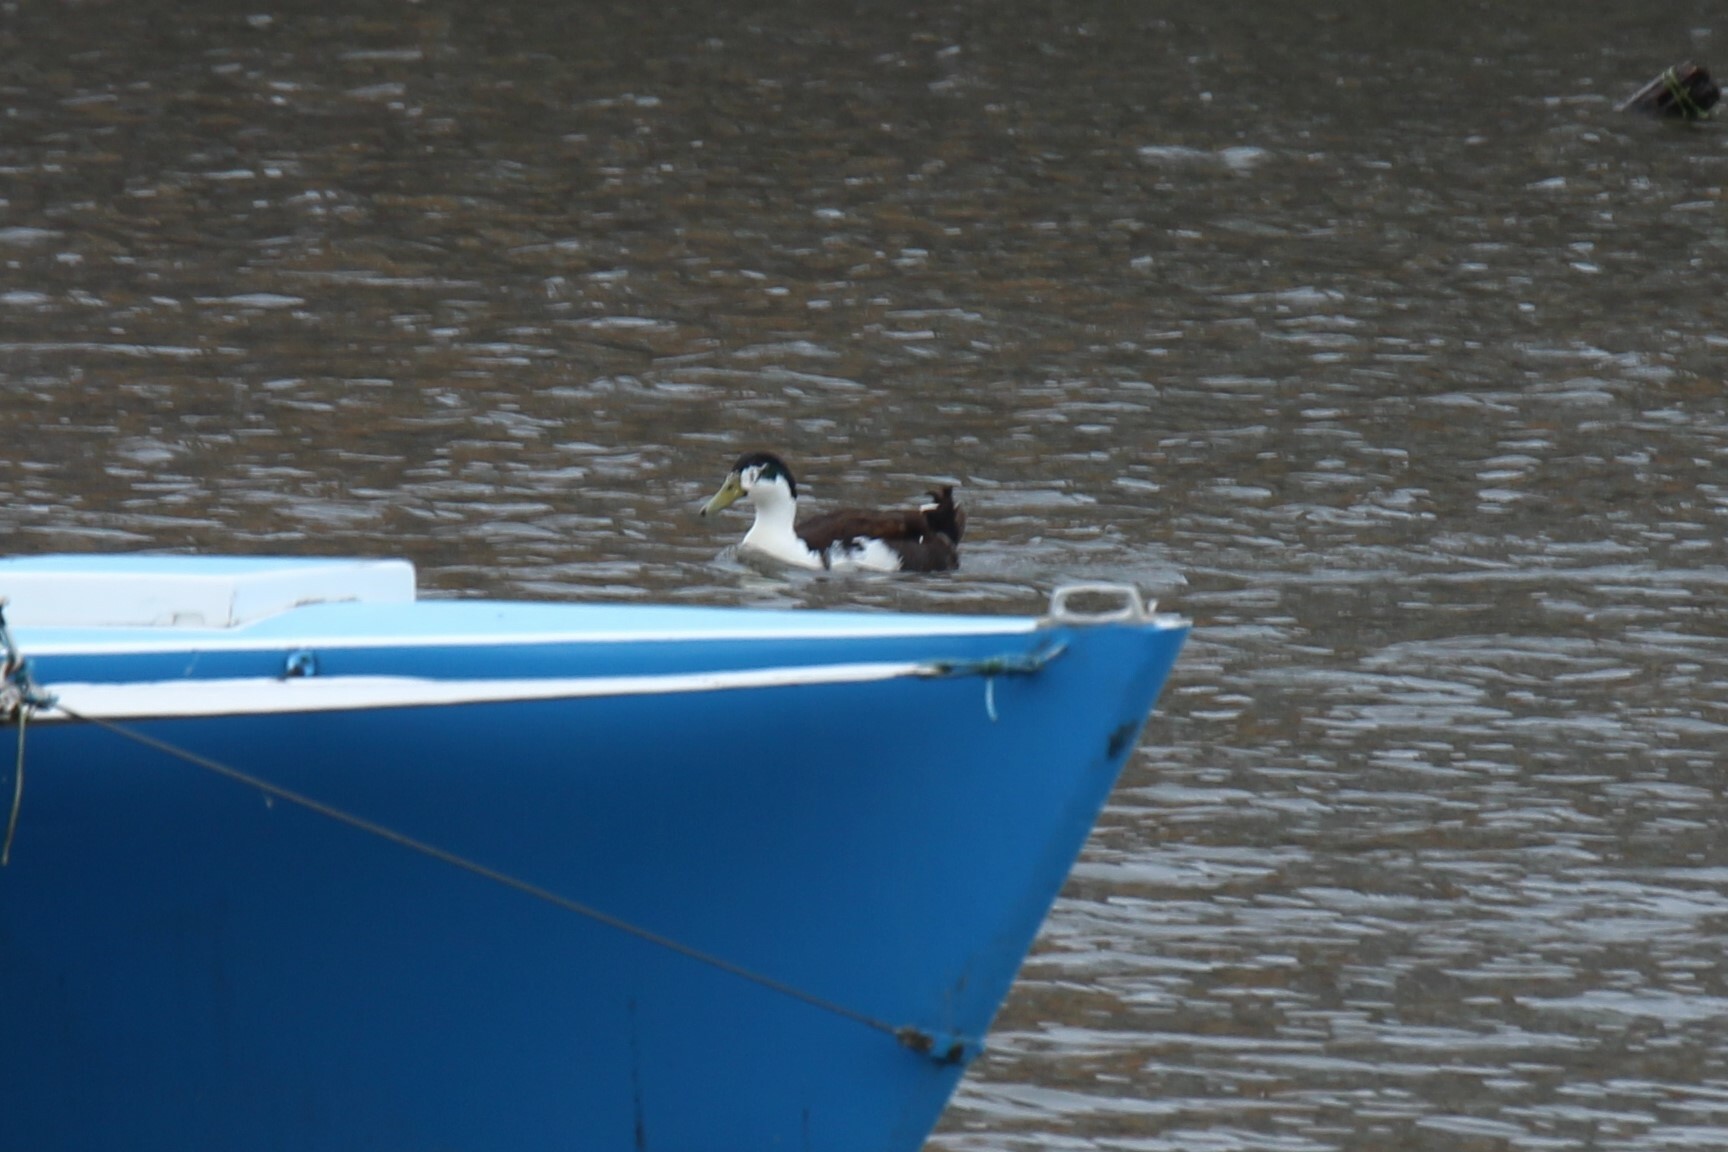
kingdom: Animalia
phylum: Chordata
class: Aves
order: Anseriformes
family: Anatidae
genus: Anas
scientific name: Anas platyrhynchos
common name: Mallard
